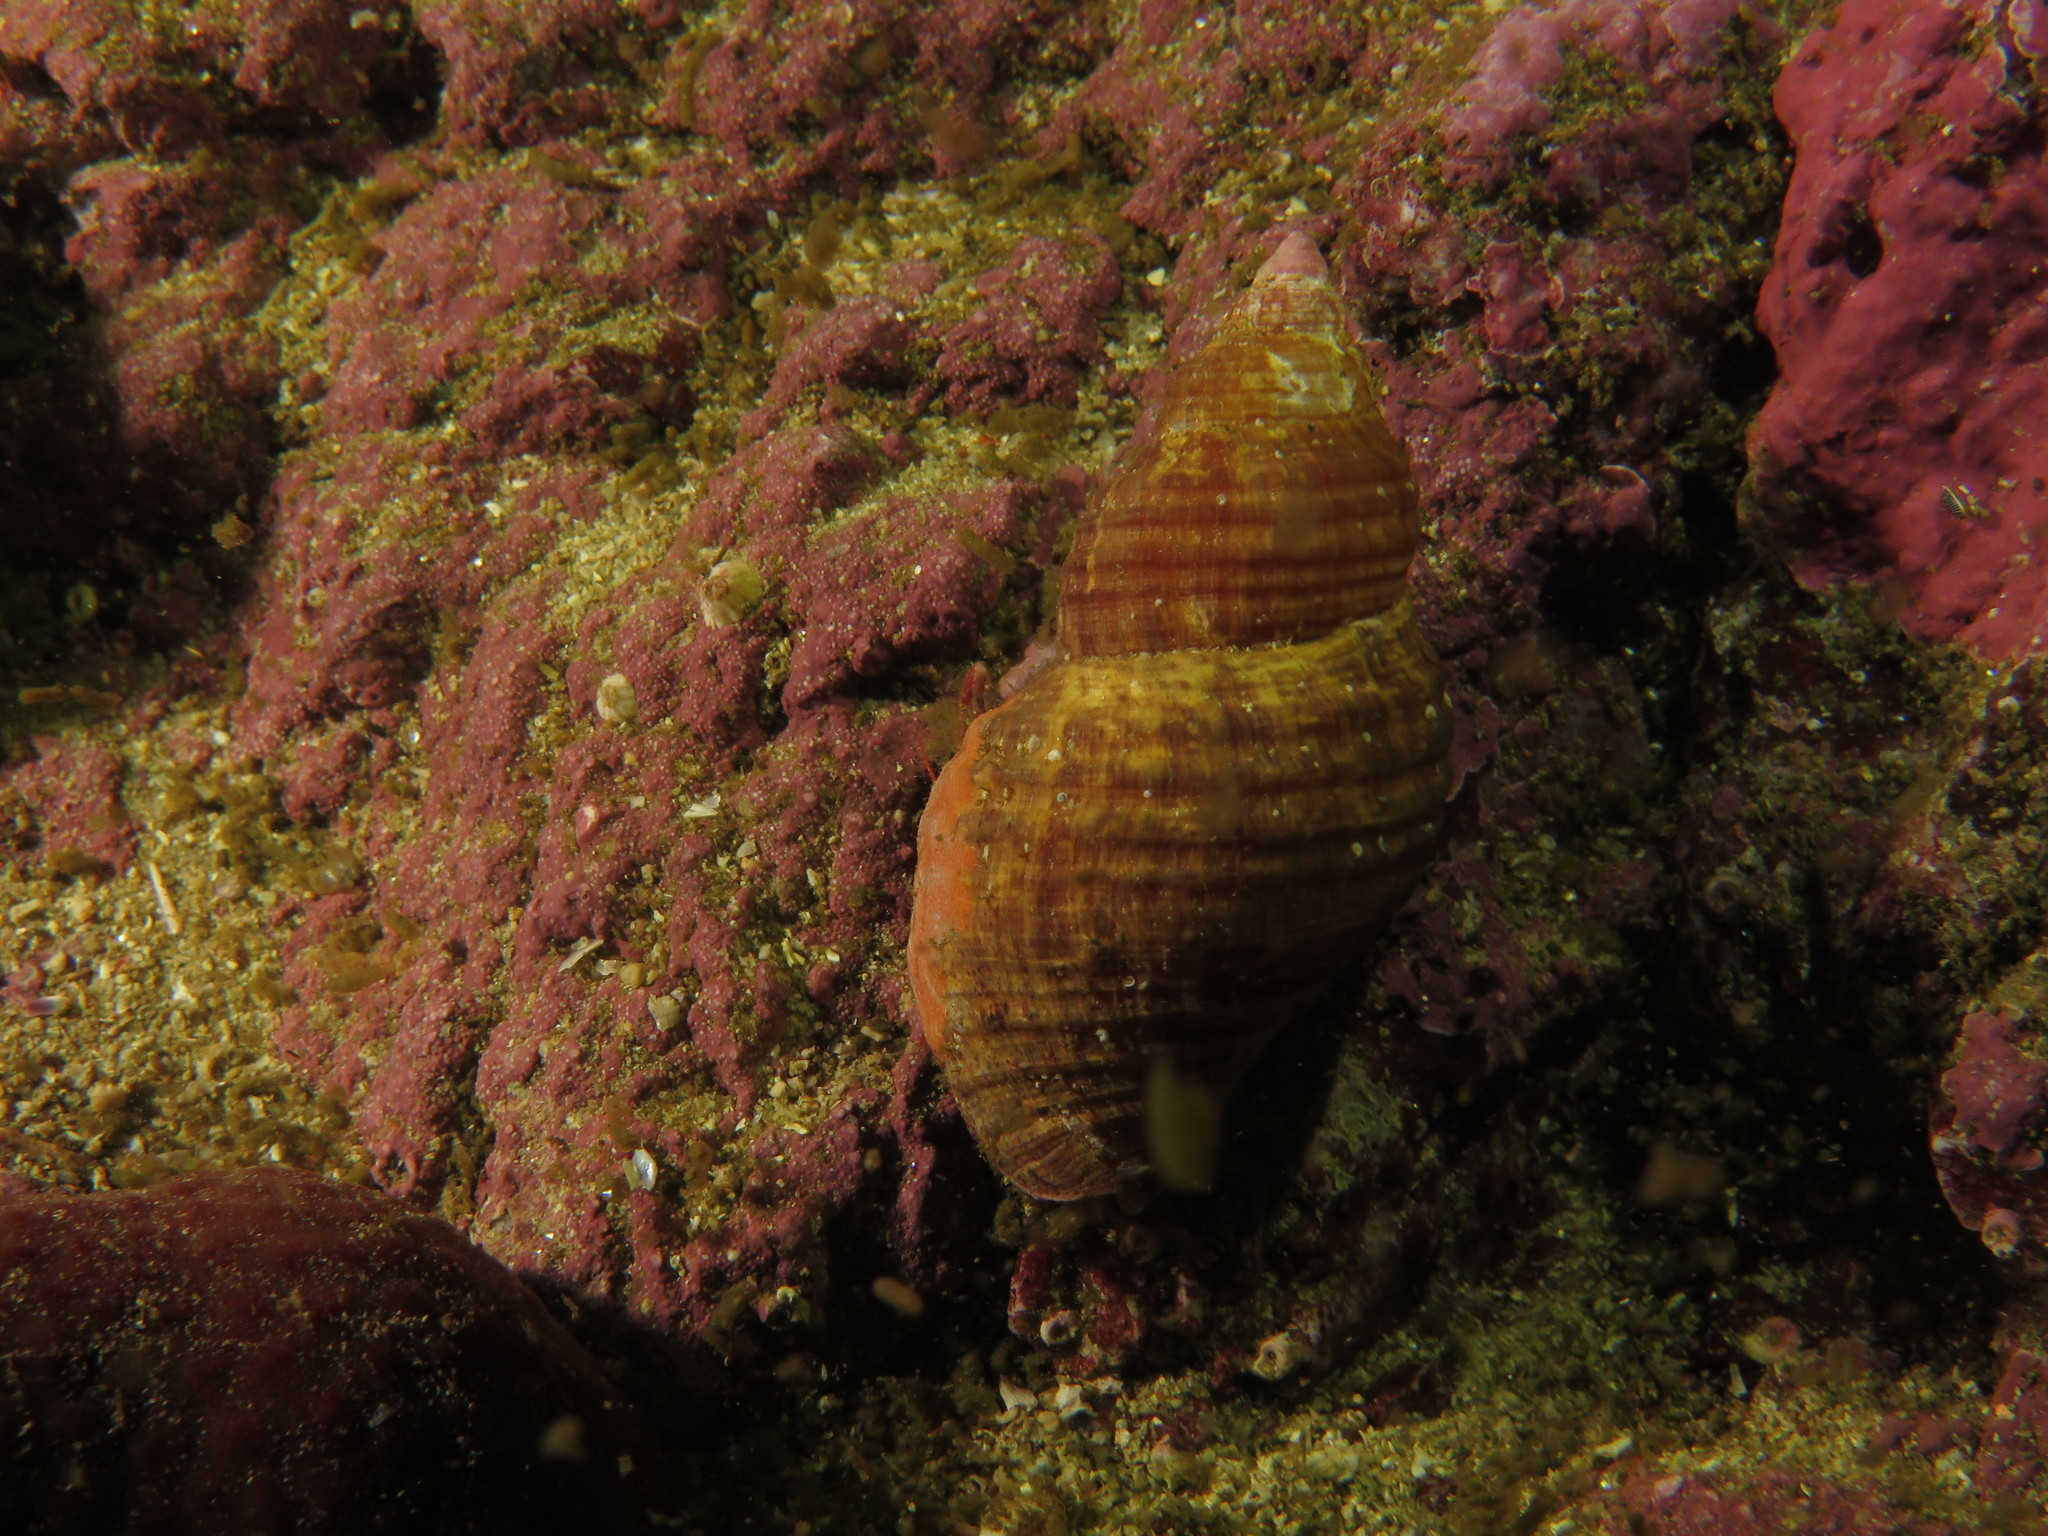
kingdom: Animalia
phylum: Mollusca
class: Gastropoda
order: Littorinimorpha
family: Cymatiidae
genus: Argobuccinum
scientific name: Argobuccinum pustulosum
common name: Pustular triton
